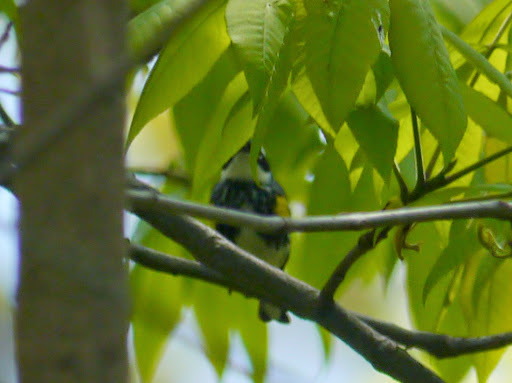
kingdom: Animalia
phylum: Chordata
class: Aves
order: Passeriformes
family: Parulidae
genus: Setophaga
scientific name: Setophaga coronata
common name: Myrtle warbler
